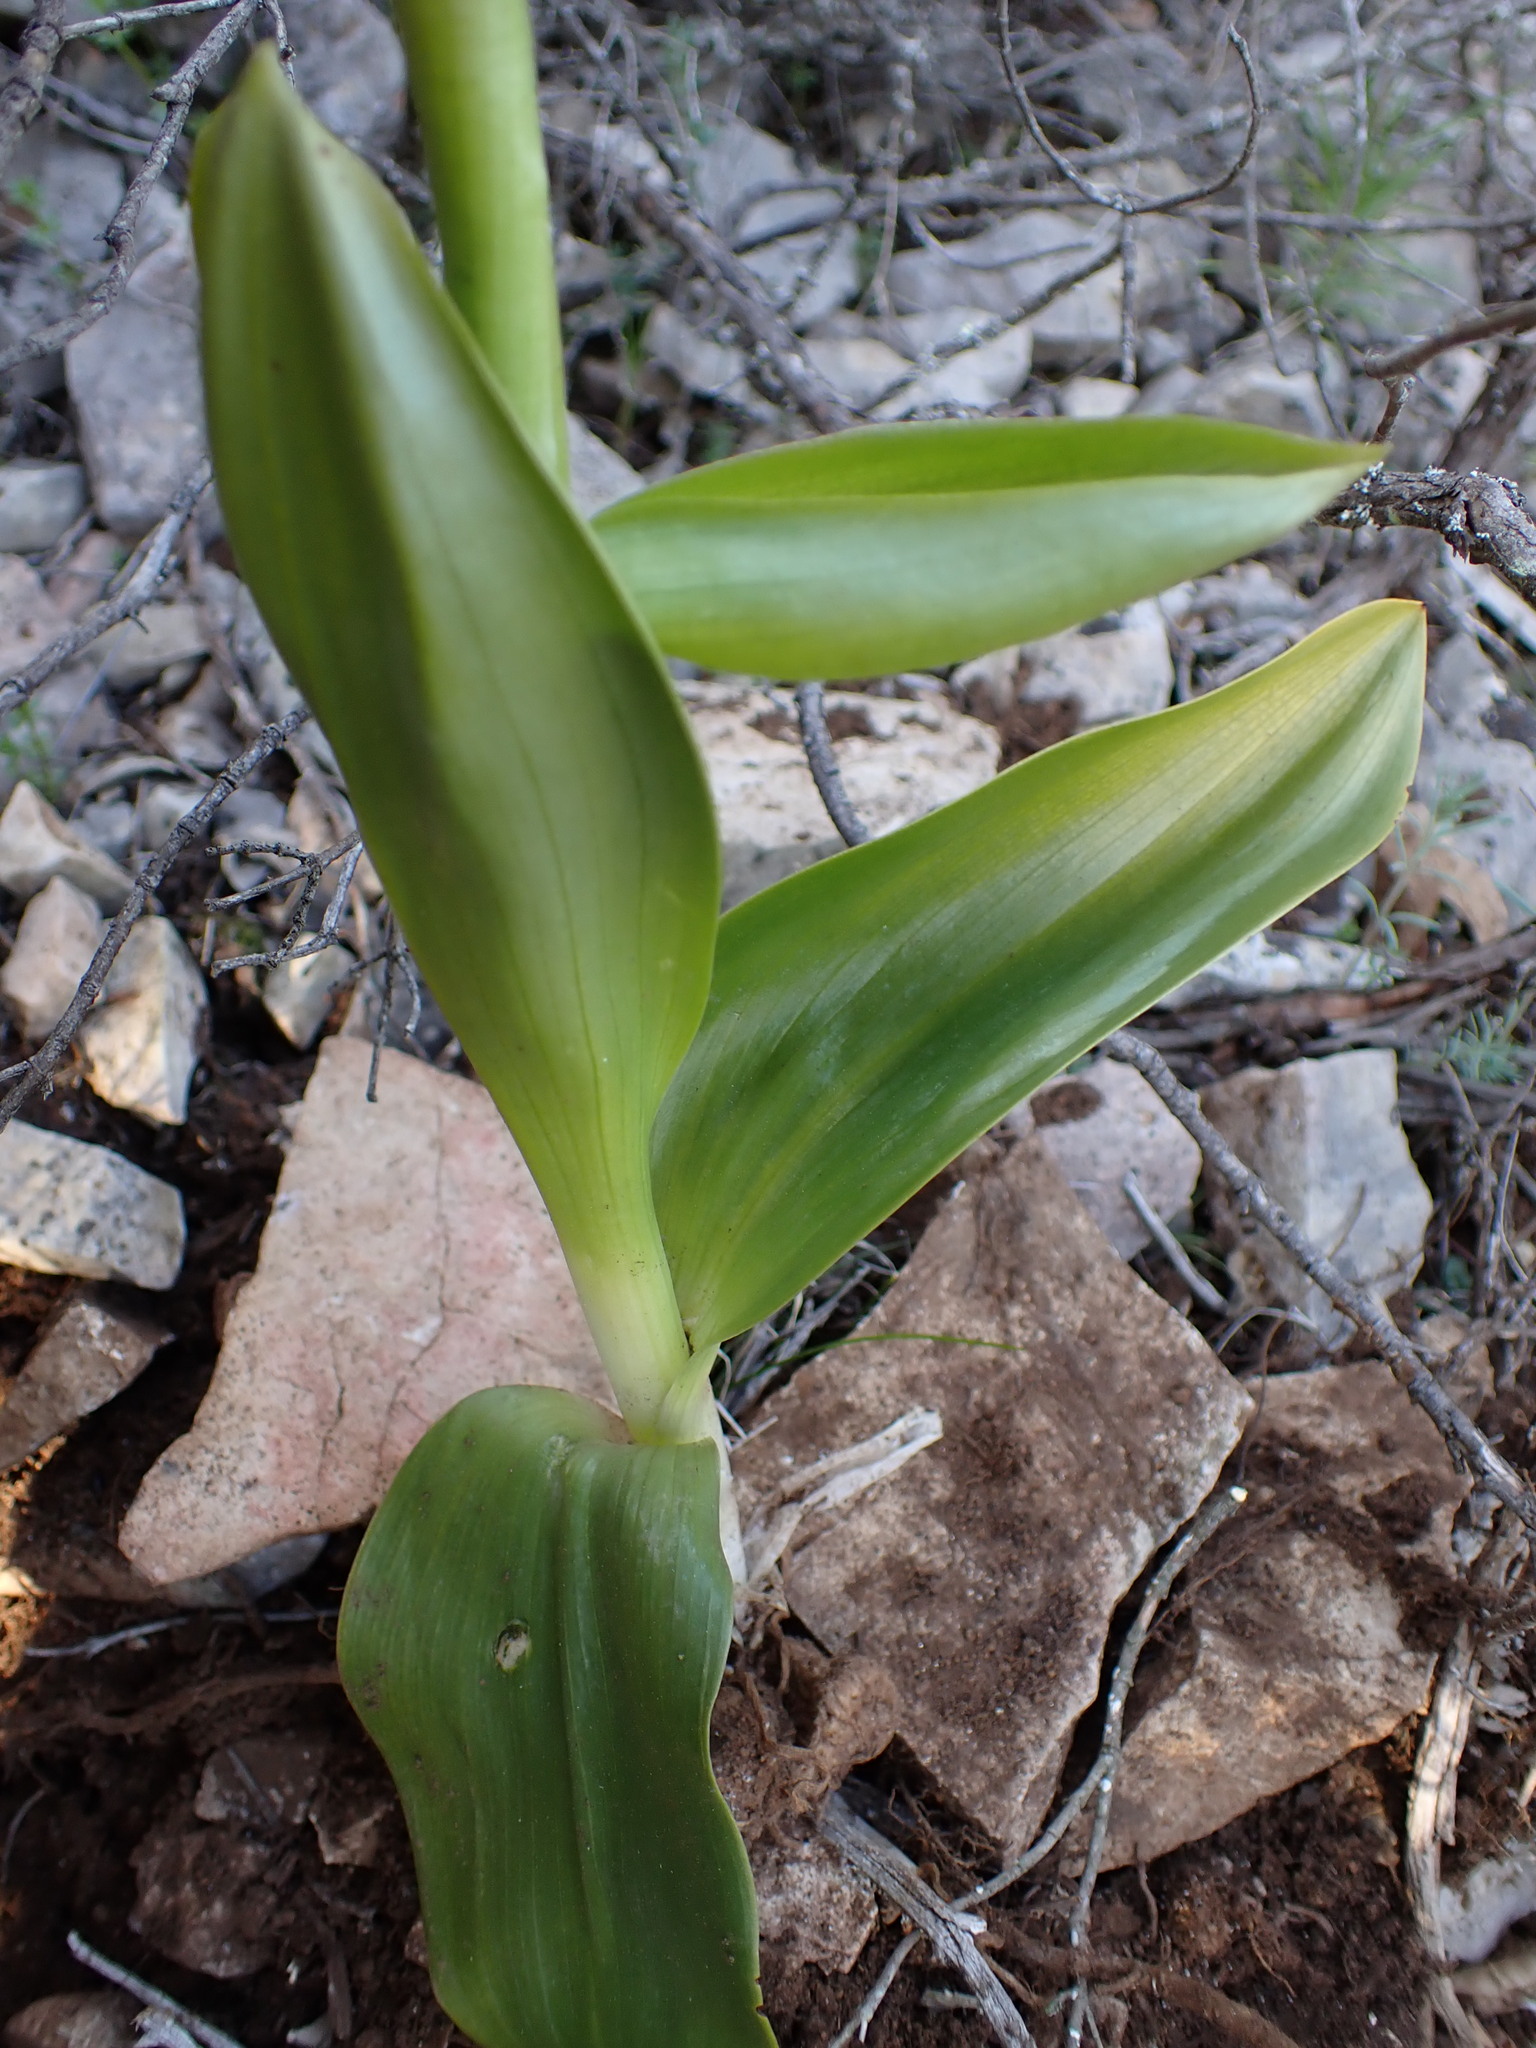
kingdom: Plantae
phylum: Tracheophyta
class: Liliopsida
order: Asparagales
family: Orchidaceae
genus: Himantoglossum
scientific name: Himantoglossum robertianum
